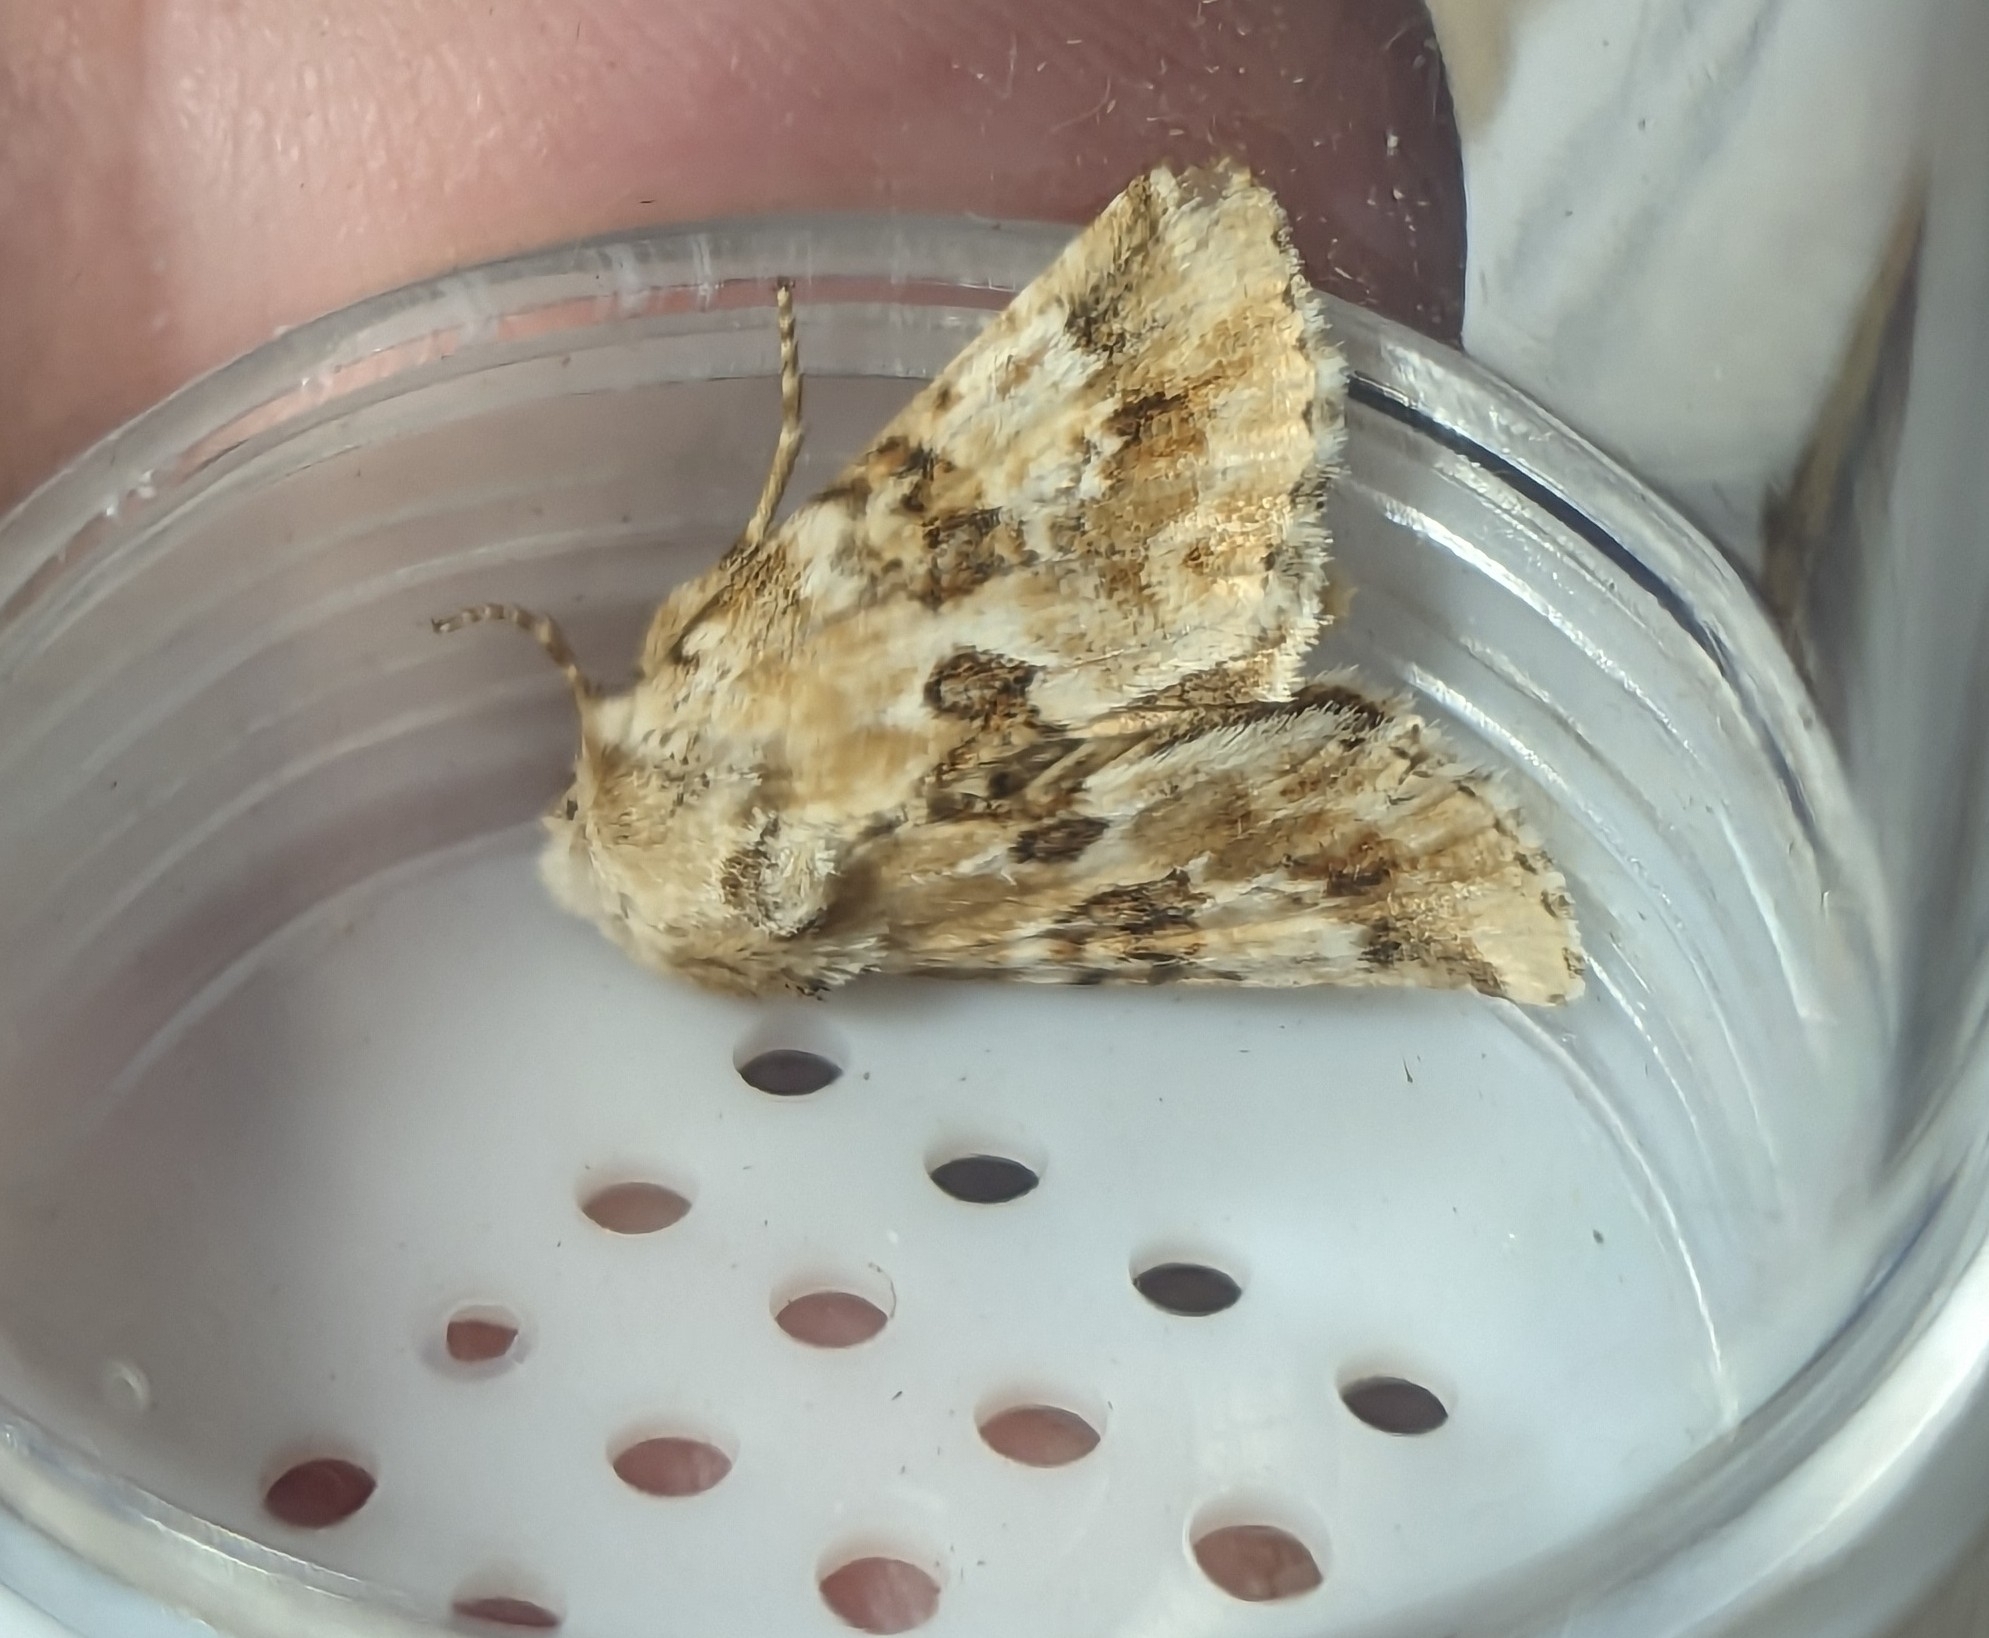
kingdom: Animalia
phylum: Arthropoda
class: Insecta
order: Lepidoptera
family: Noctuidae
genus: Eremobia
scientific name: Eremobia ochroleuca
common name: Dusky sallow
